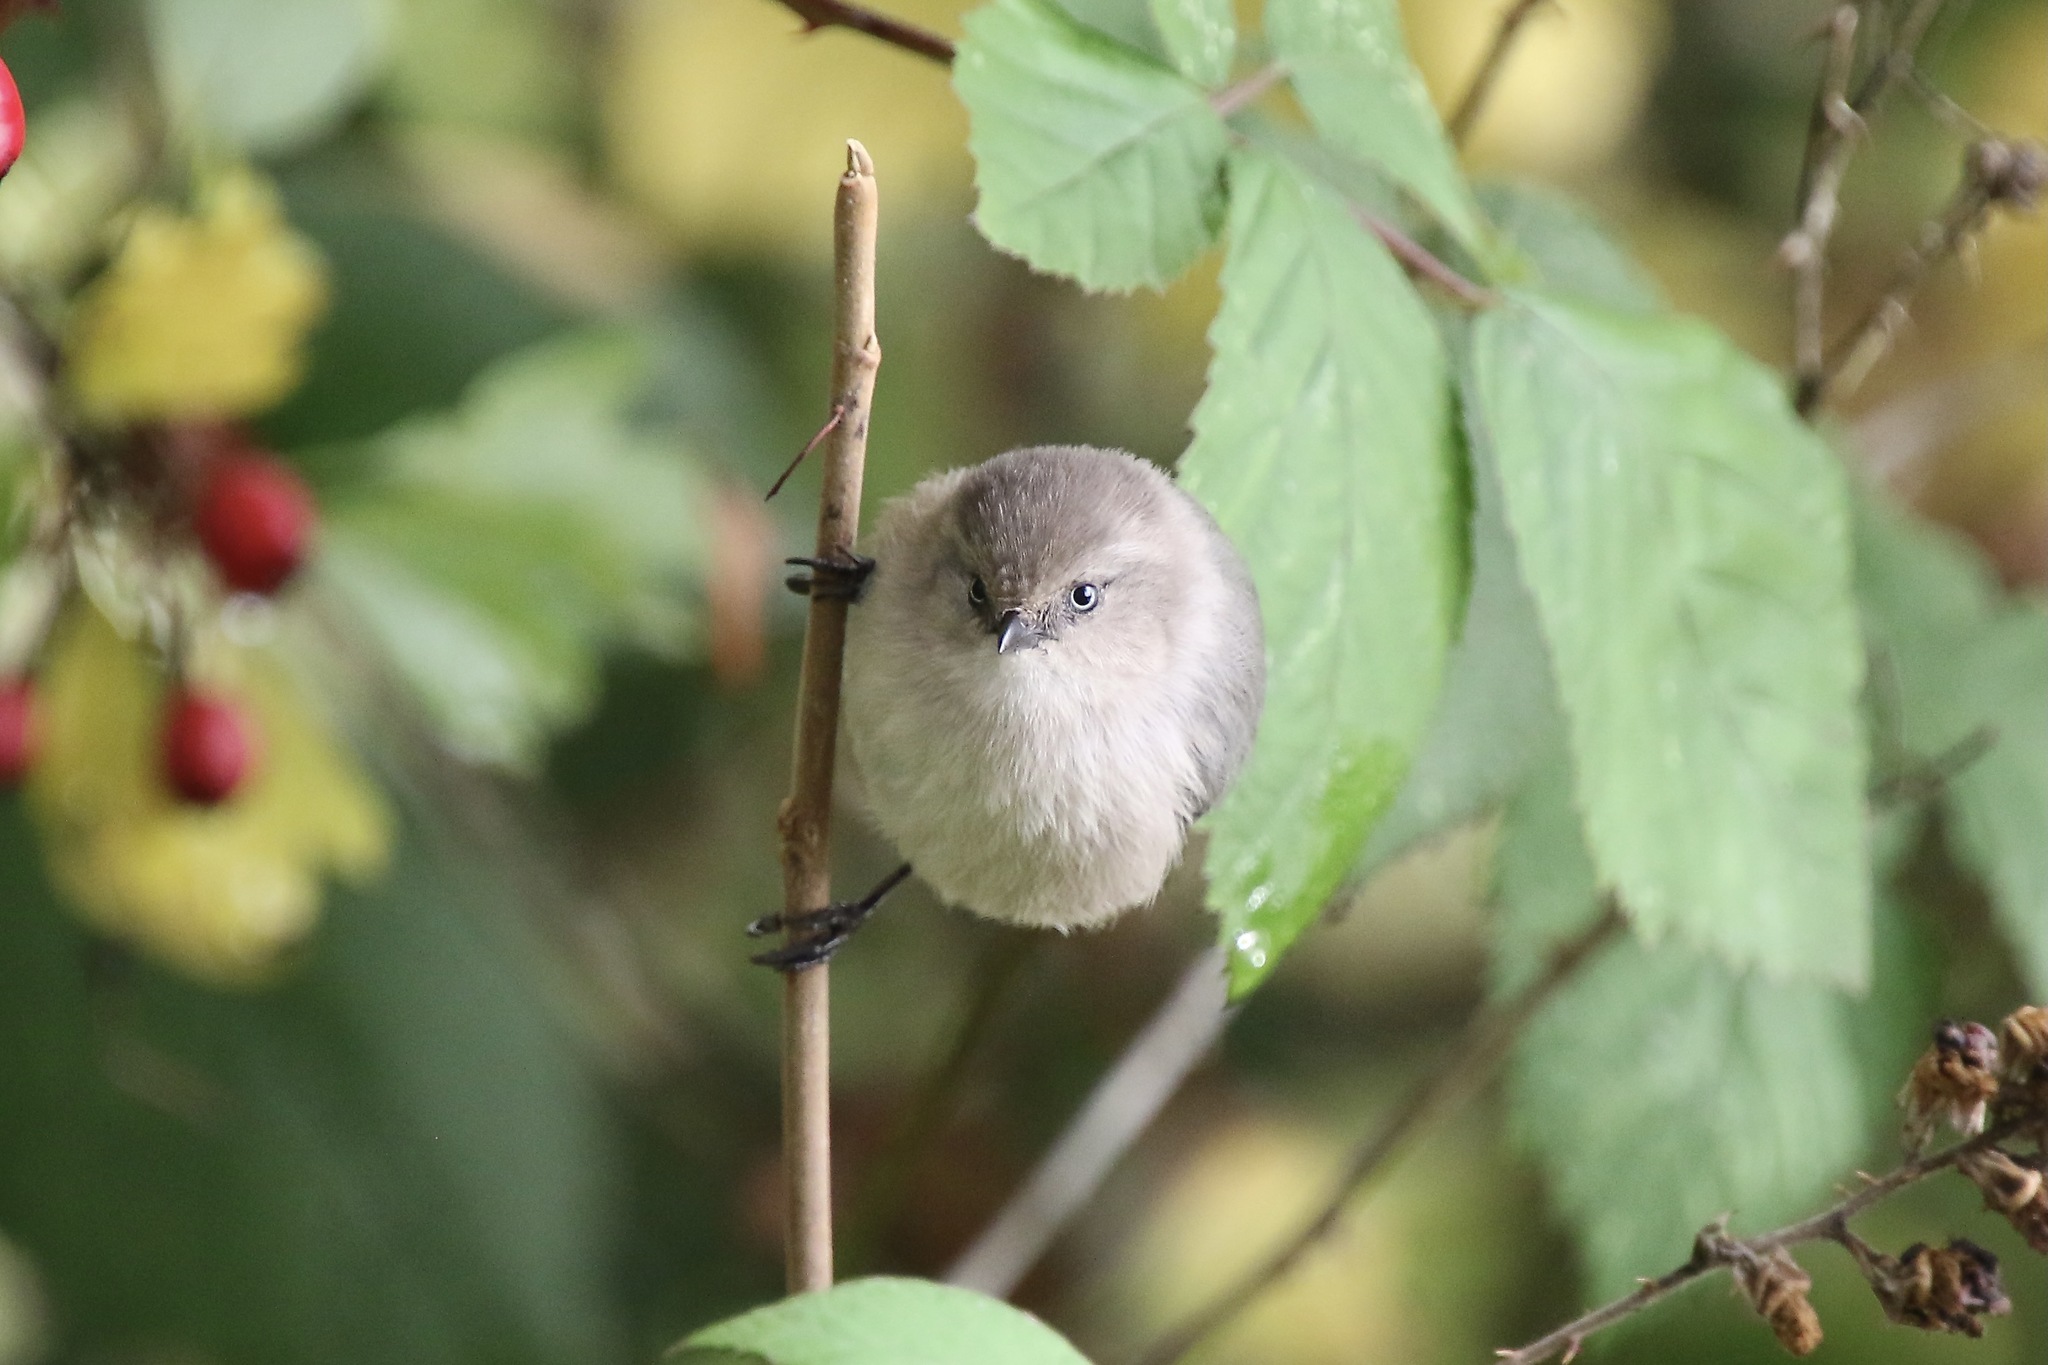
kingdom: Animalia
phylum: Chordata
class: Aves
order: Passeriformes
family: Aegithalidae
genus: Psaltriparus
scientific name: Psaltriparus minimus
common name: American bushtit
